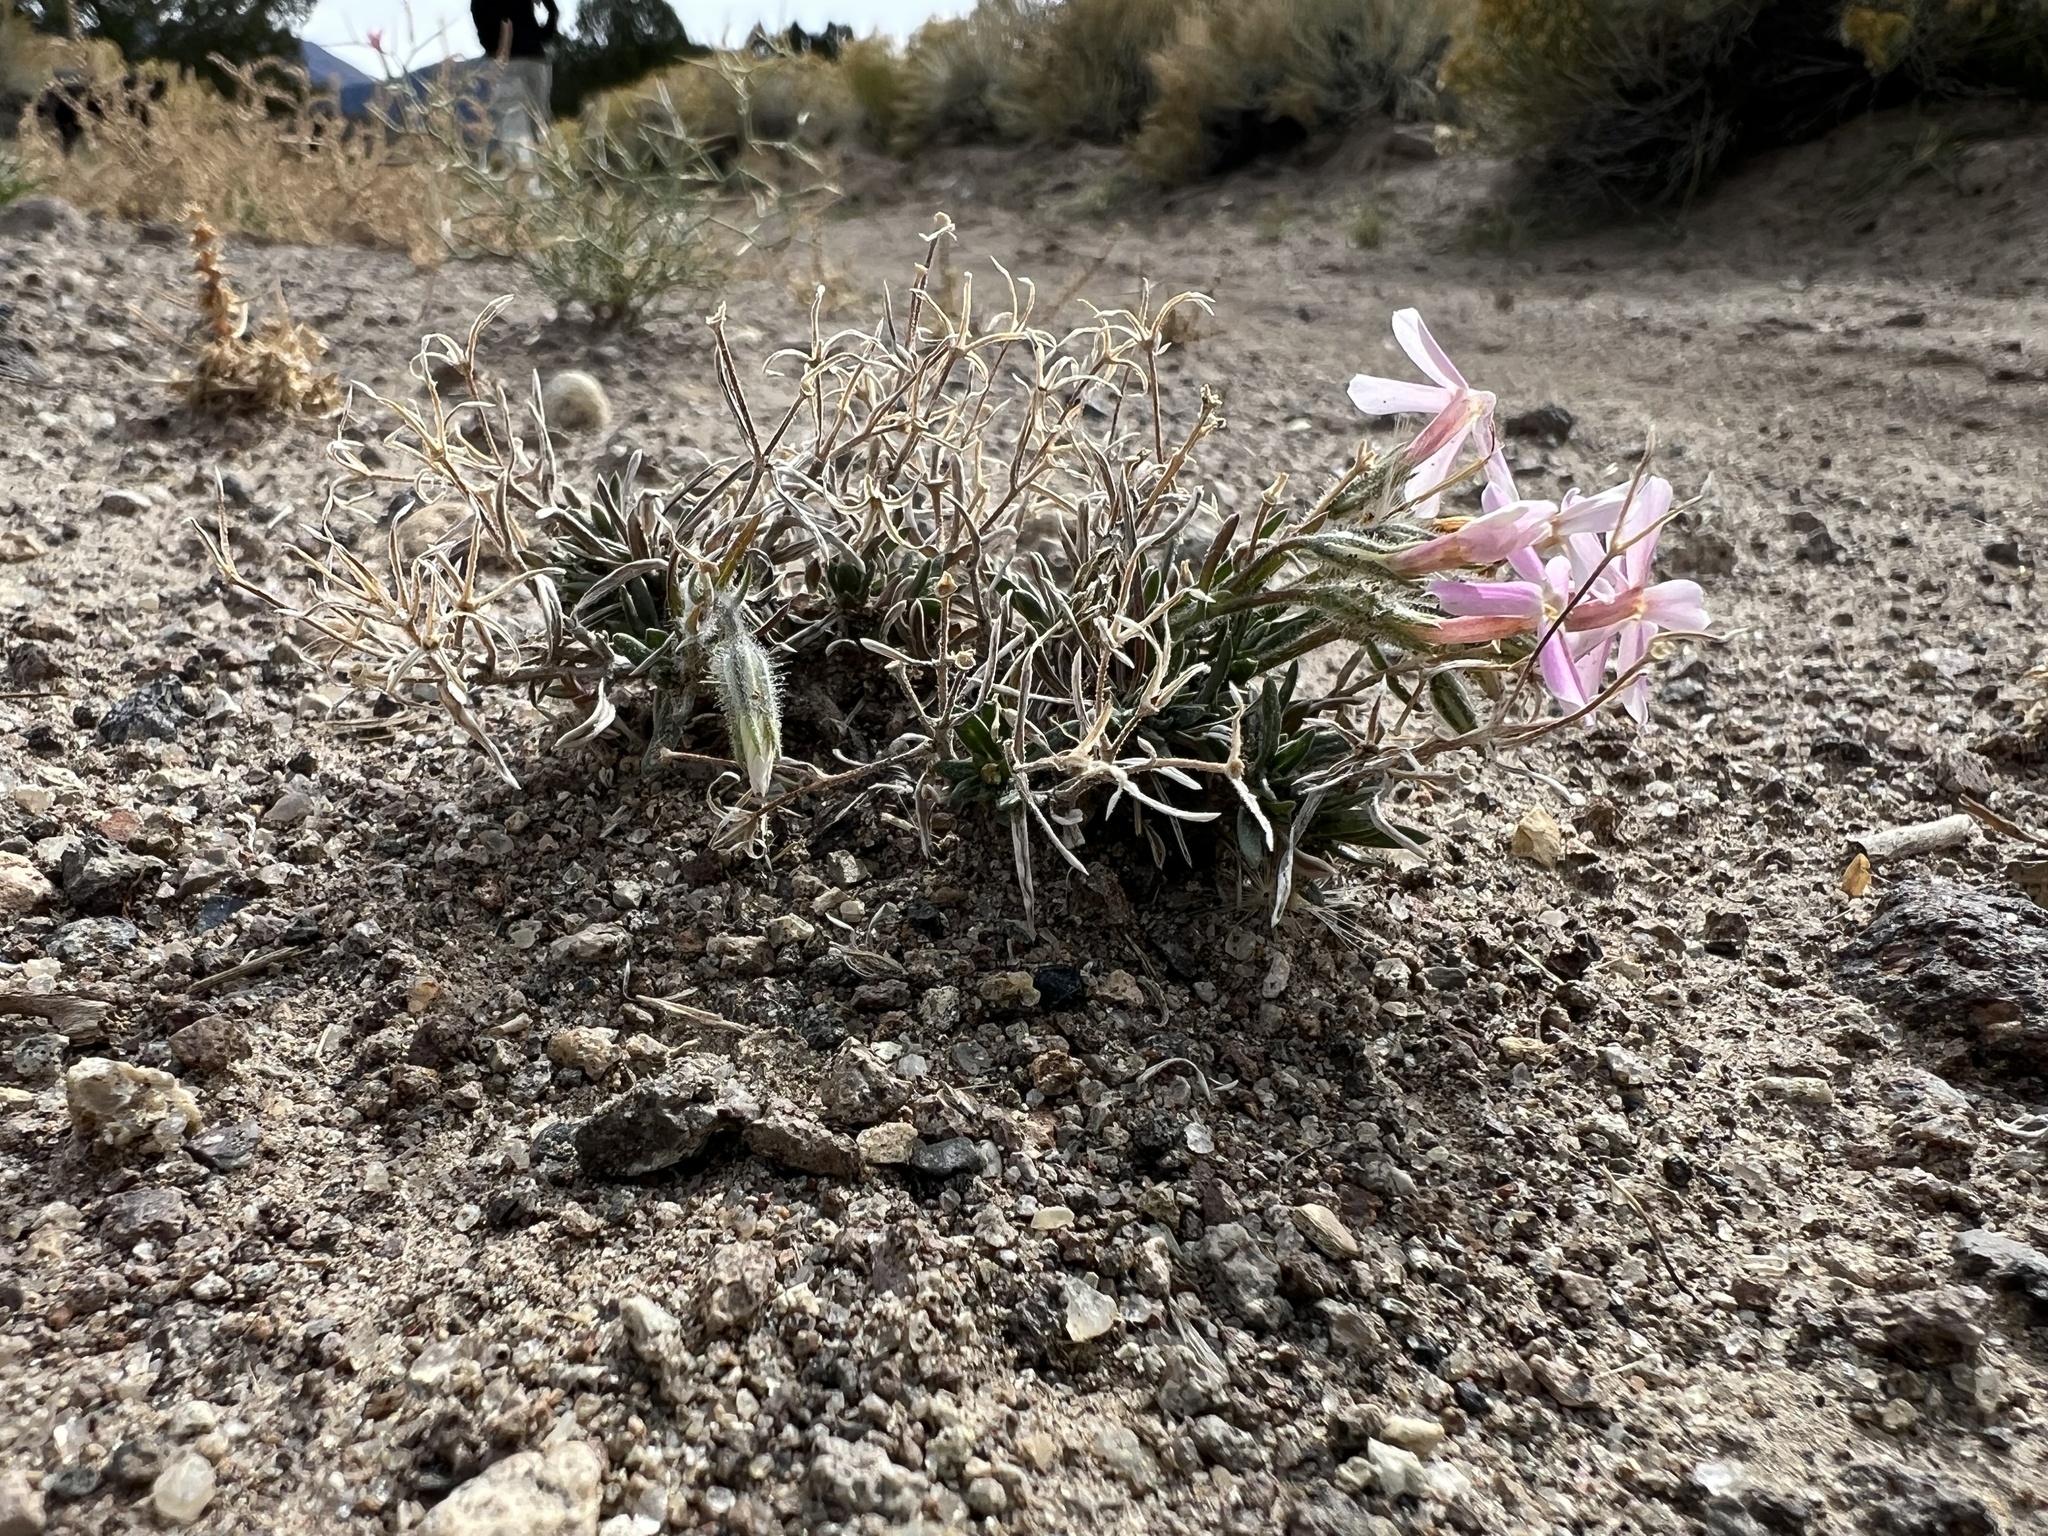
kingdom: Plantae
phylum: Tracheophyta
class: Magnoliopsida
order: Ericales
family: Polemoniaceae
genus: Phlox
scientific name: Phlox longifolia
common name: Longleaf phlox
